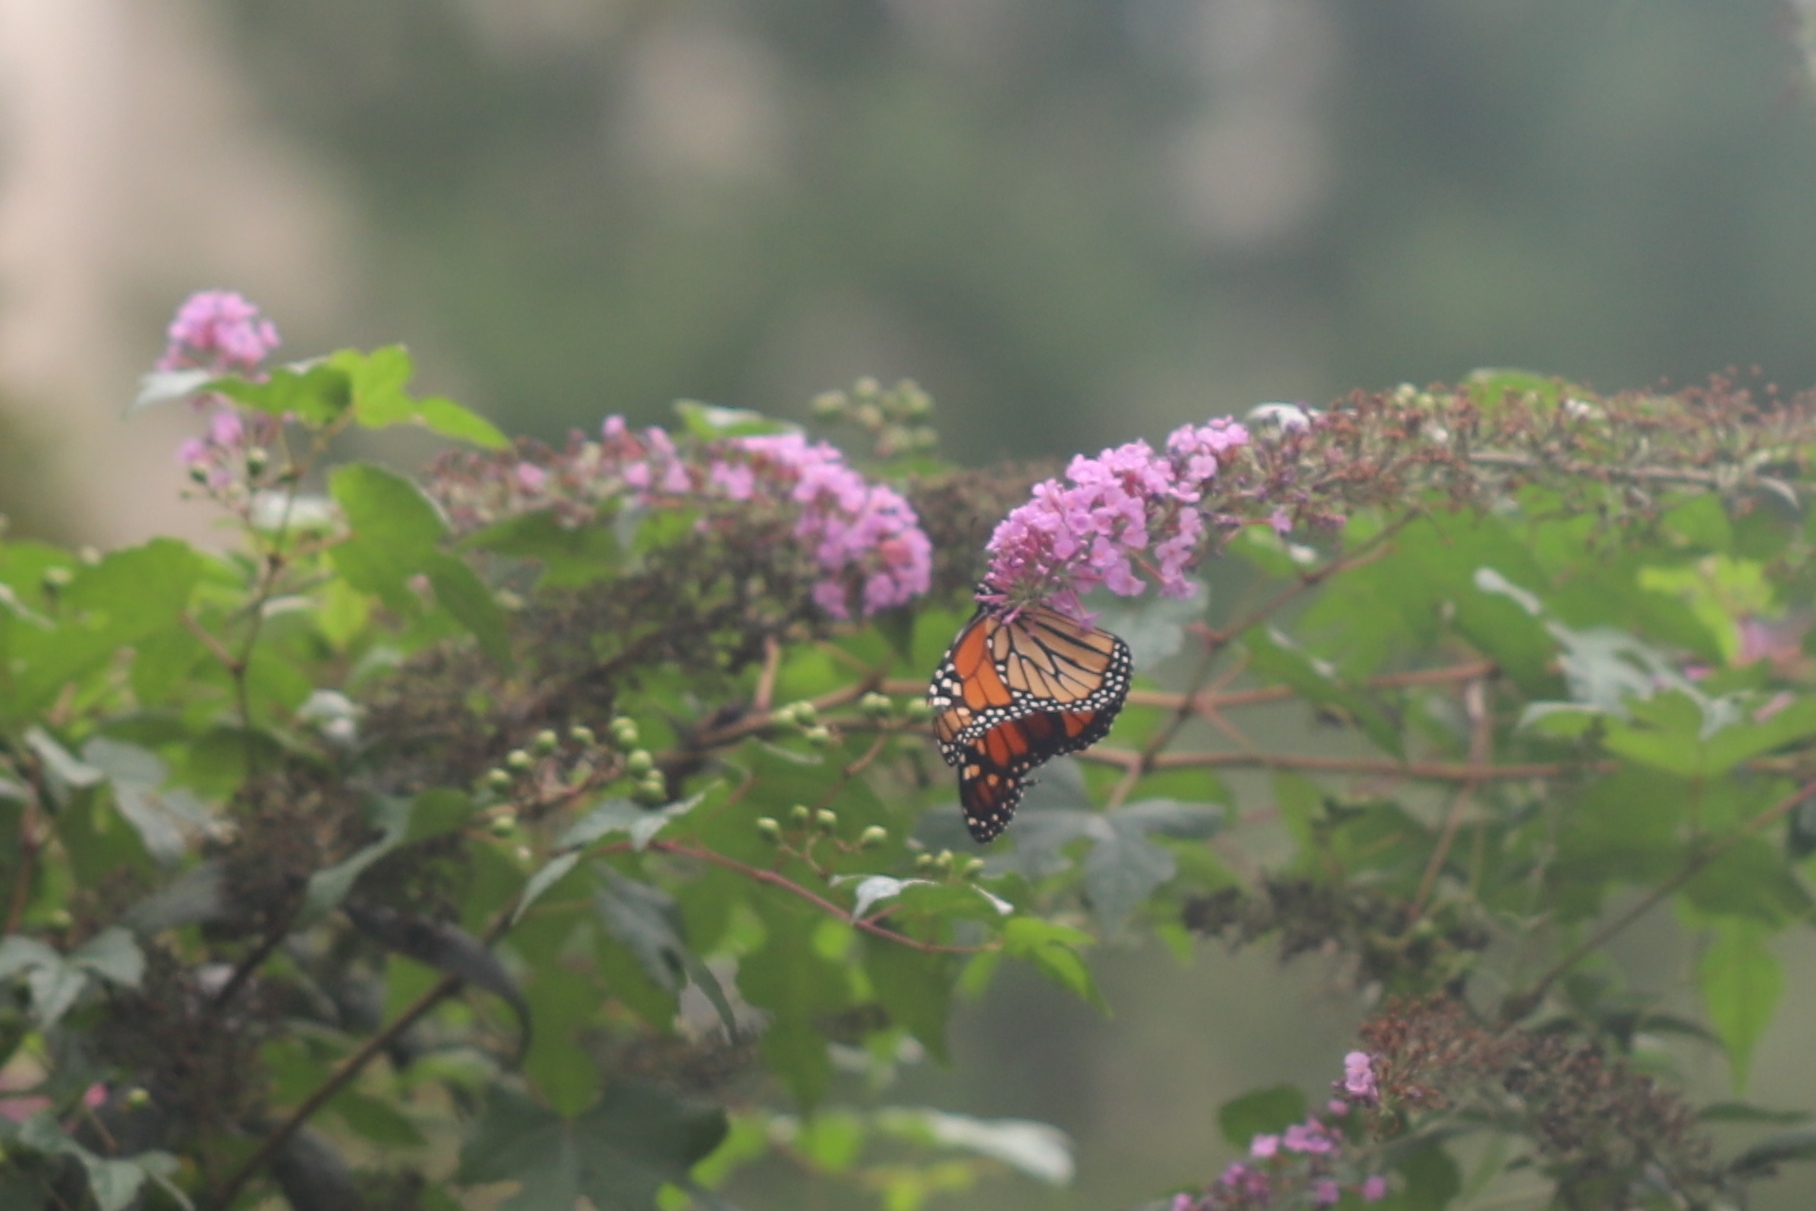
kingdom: Animalia
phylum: Arthropoda
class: Insecta
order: Lepidoptera
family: Nymphalidae
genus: Danaus
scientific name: Danaus plexippus
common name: Monarch
